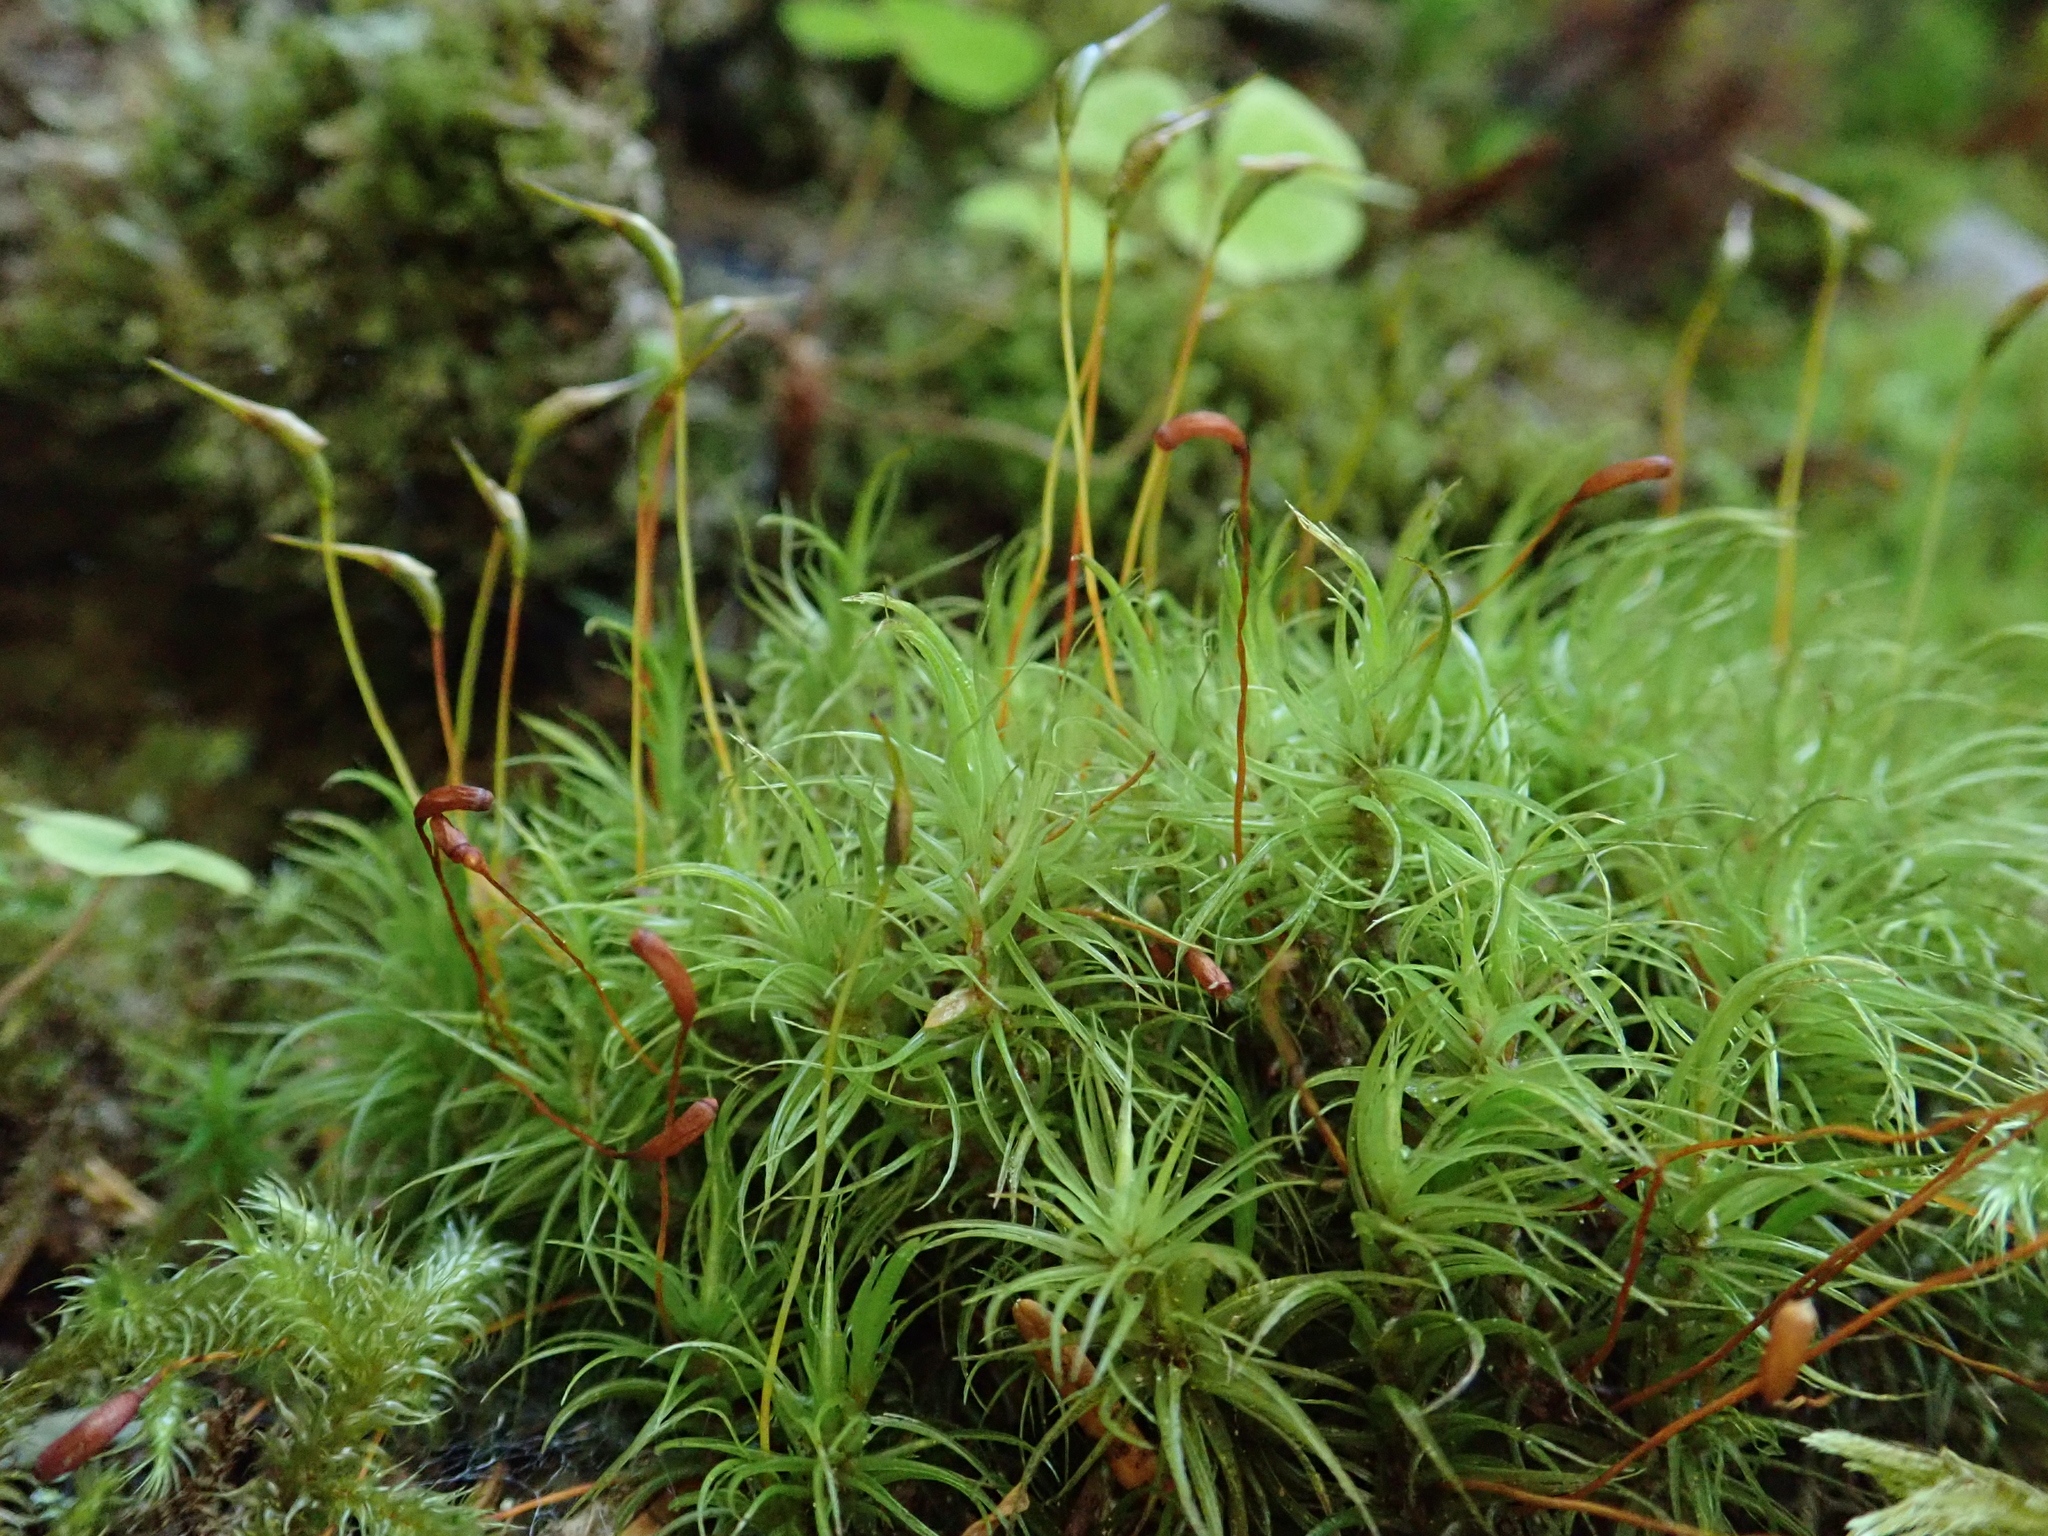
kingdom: Plantae
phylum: Bryophyta
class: Bryopsida
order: Dicranales
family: Dicranaceae
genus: Dicranum
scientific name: Dicranum scoparium
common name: Broom fork-moss
